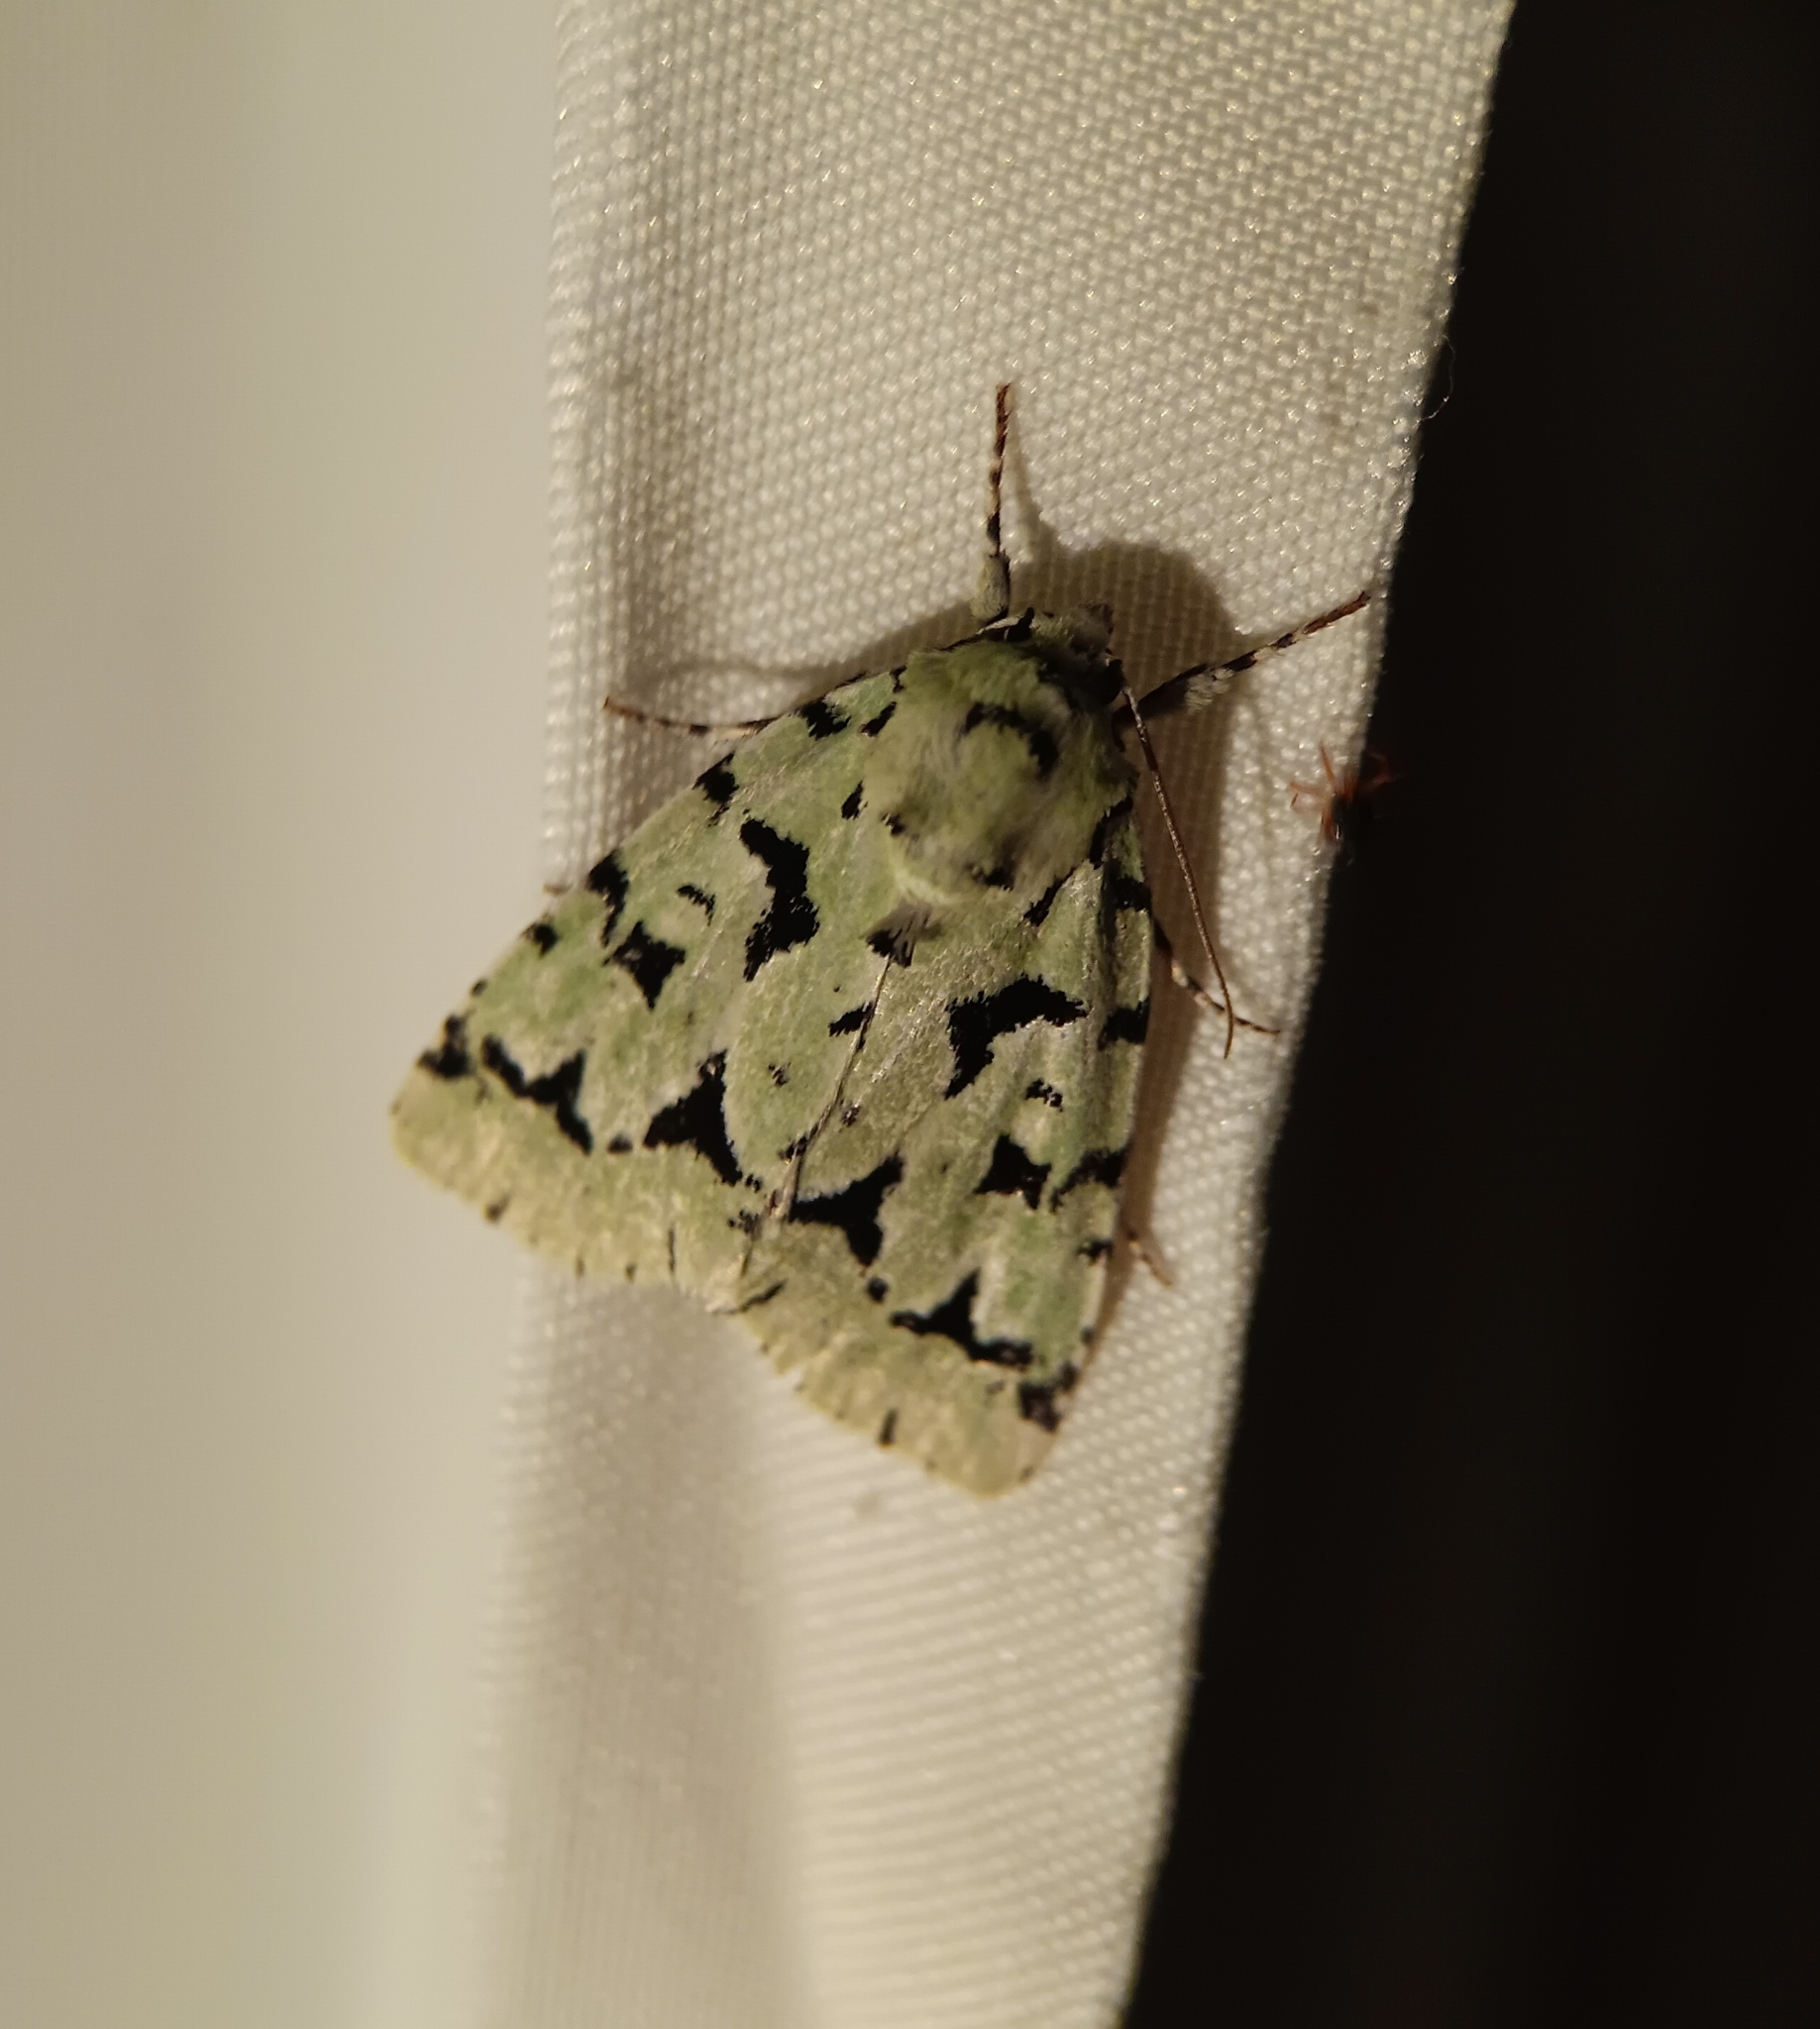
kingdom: Animalia
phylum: Arthropoda
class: Insecta
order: Lepidoptera
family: Noctuidae
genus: Acronicta
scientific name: Acronicta fallax
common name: Green marvel
